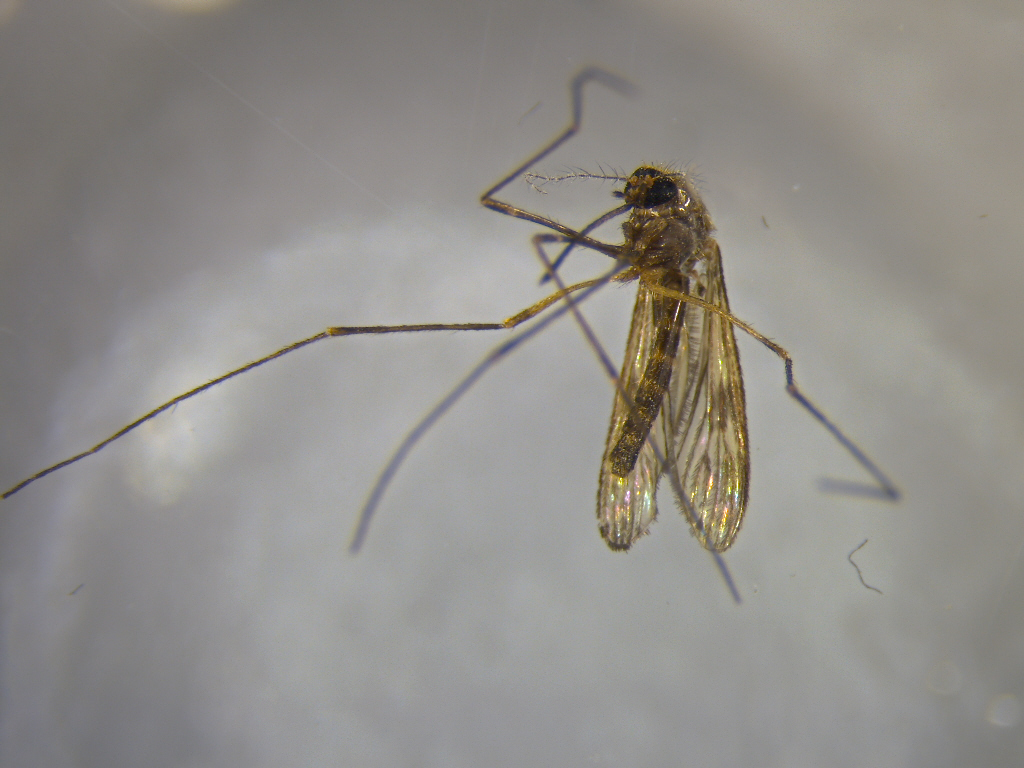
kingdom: Animalia
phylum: Arthropoda
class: Insecta
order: Diptera
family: Culicidae
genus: Culiseta
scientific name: Culiseta tonnoiri
